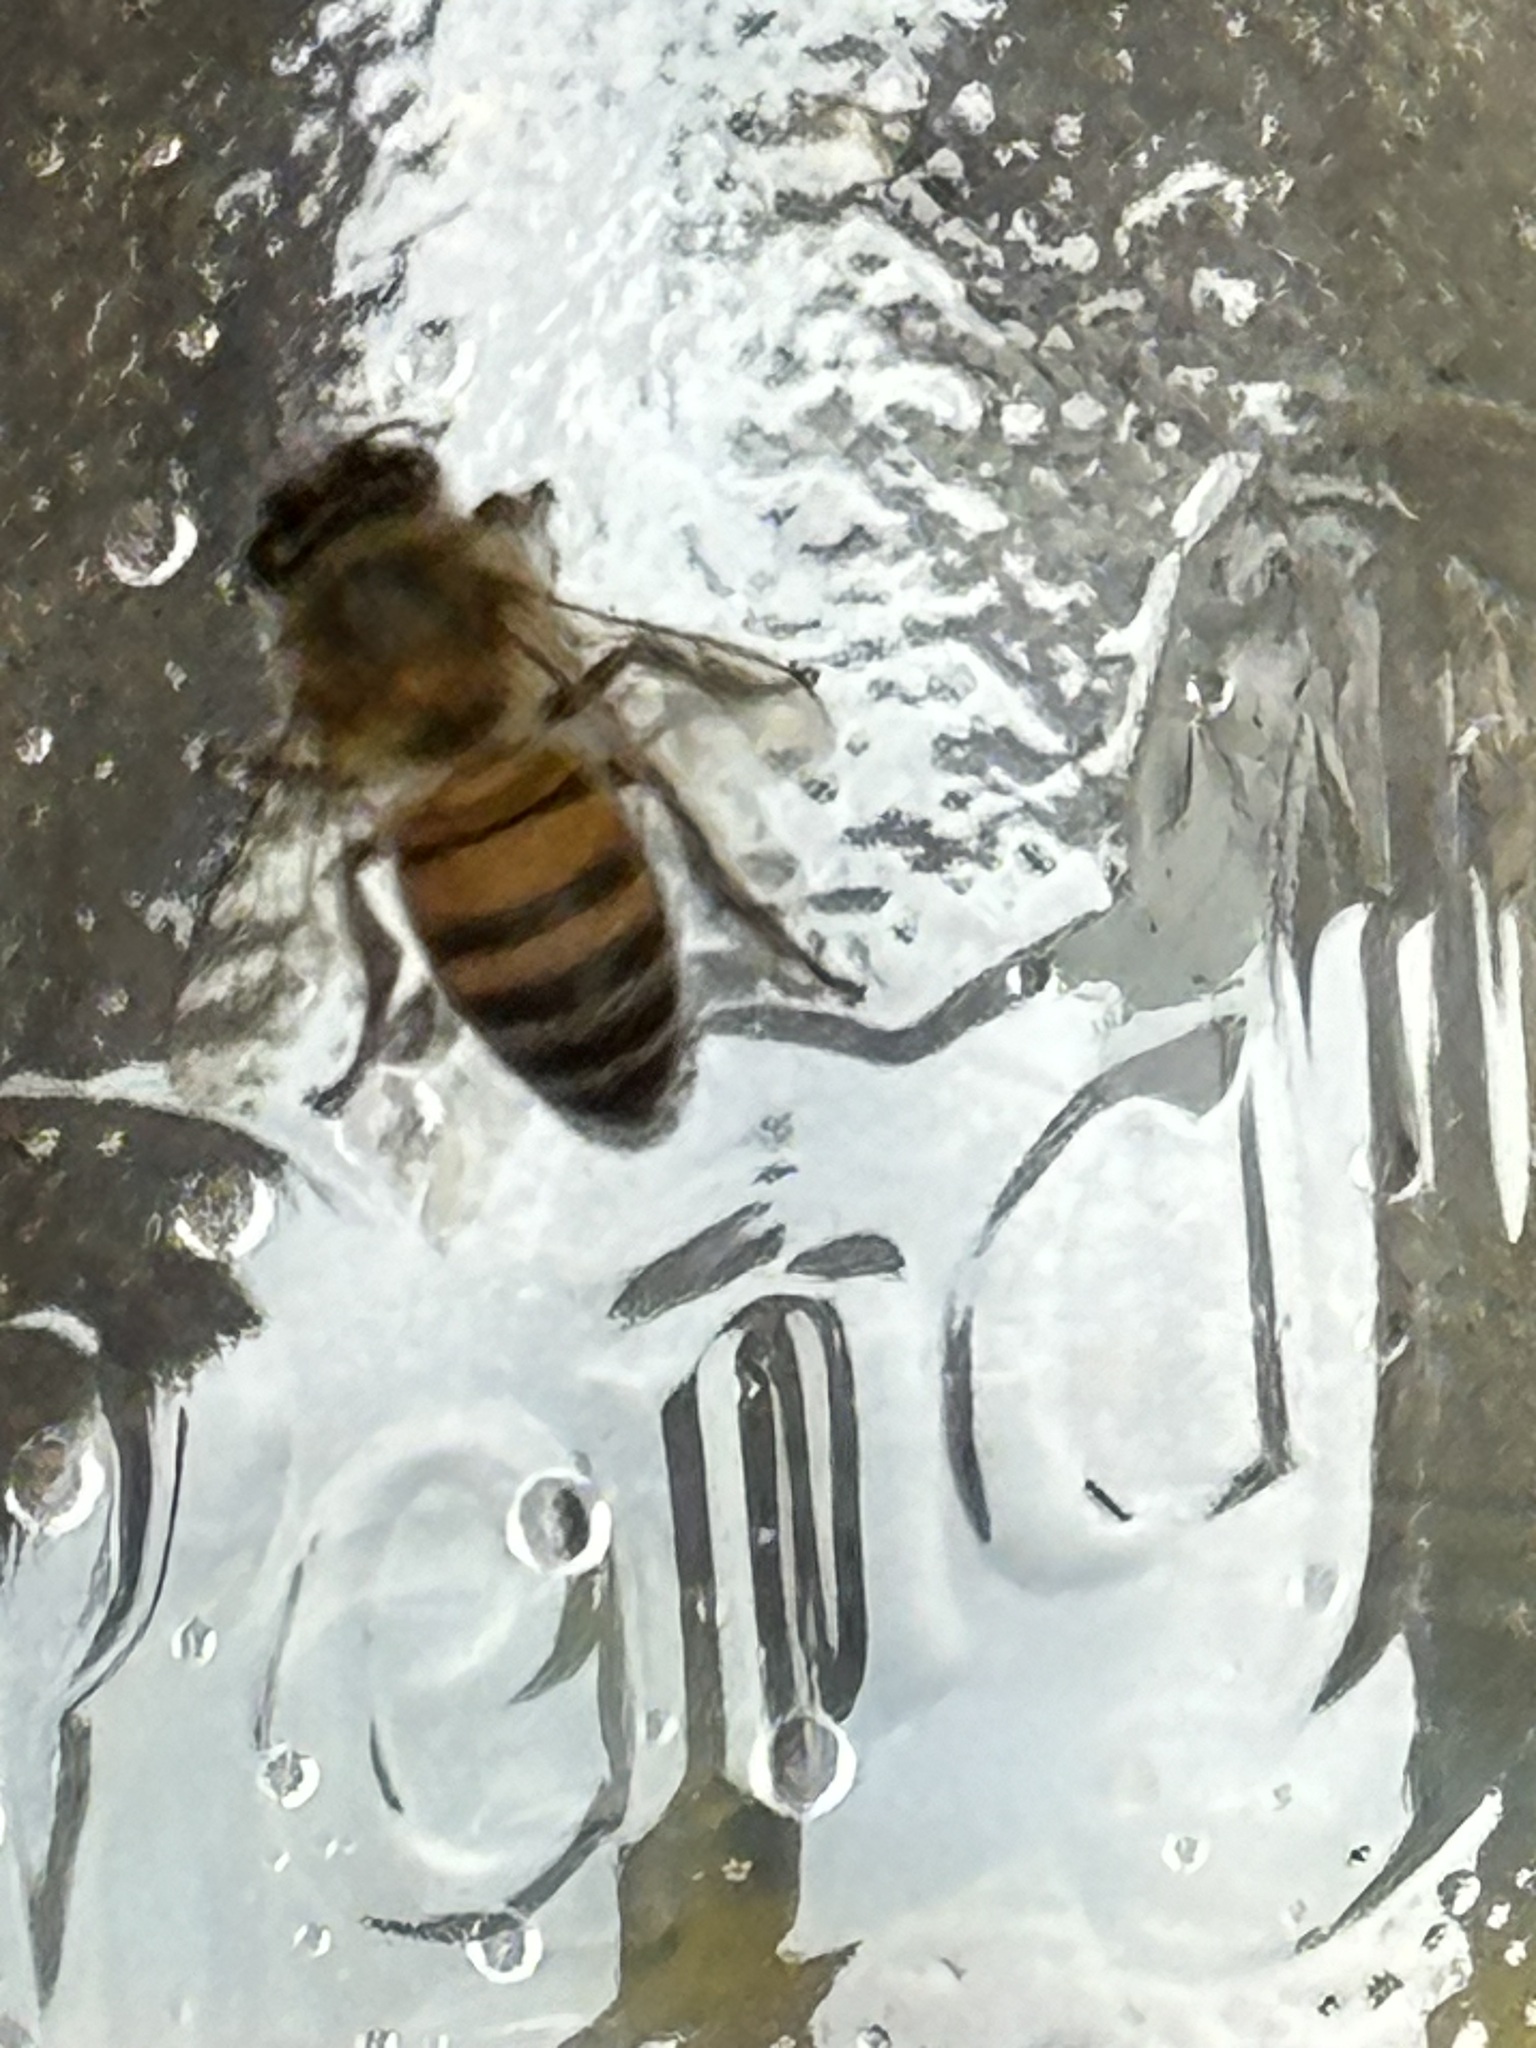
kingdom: Animalia
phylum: Arthropoda
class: Insecta
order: Hymenoptera
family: Apidae
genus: Apis
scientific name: Apis mellifera
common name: Honey bee
